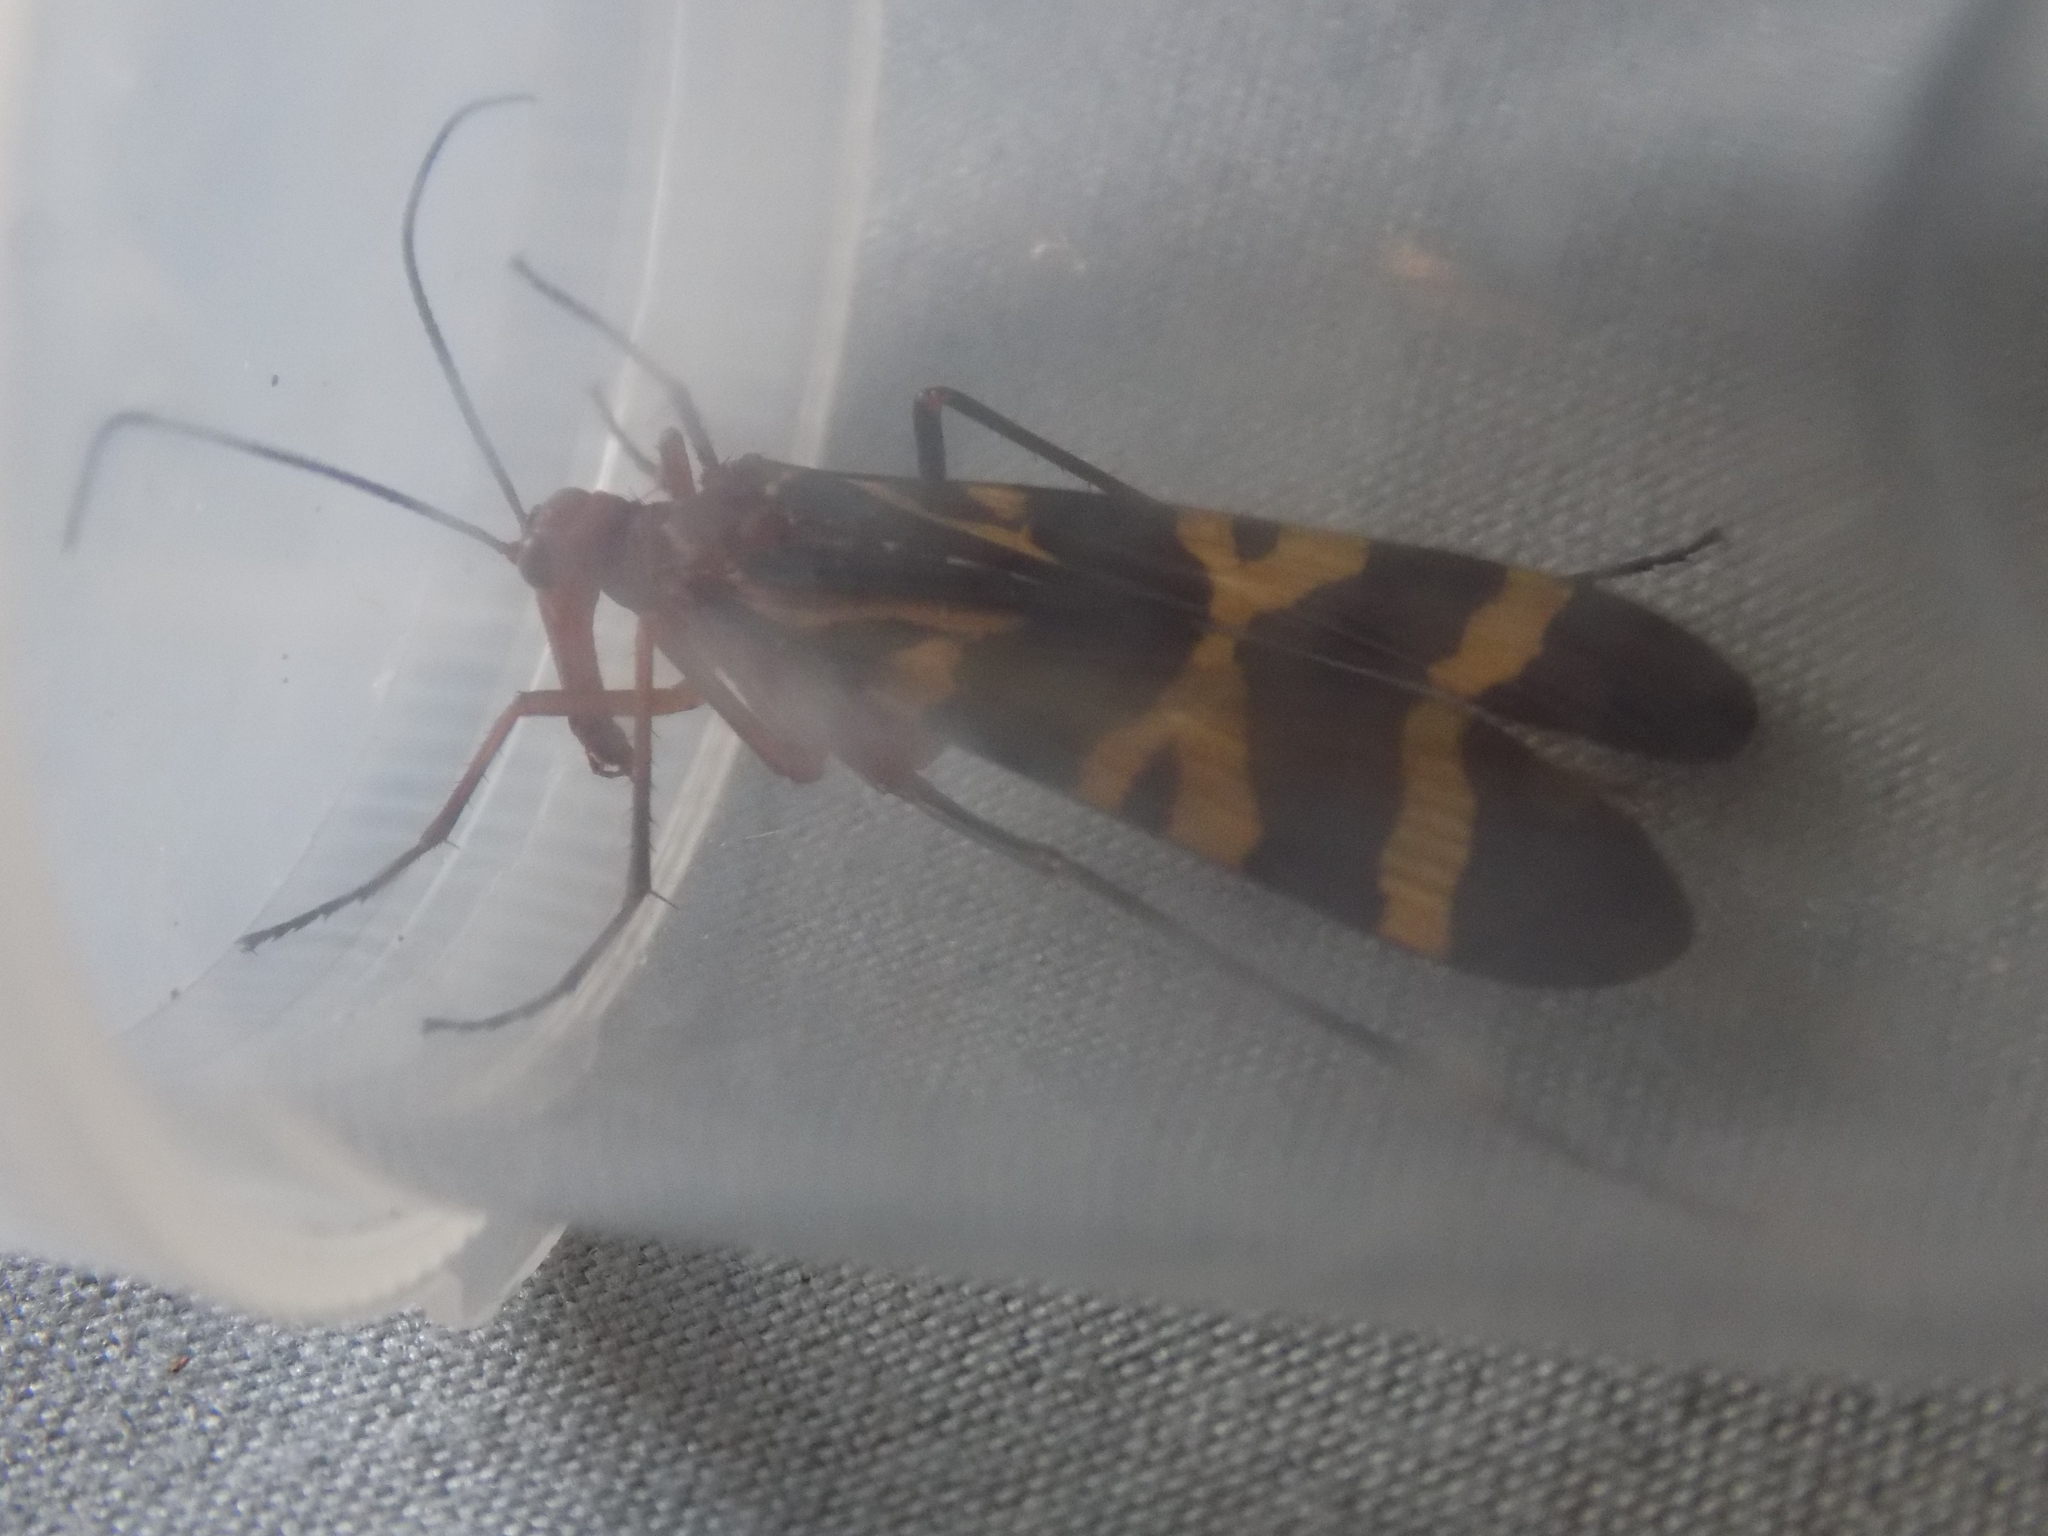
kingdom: Animalia
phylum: Arthropoda
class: Insecta
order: Mecoptera
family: Panorpidae
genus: Panorpa
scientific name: Panorpa nuptialis
